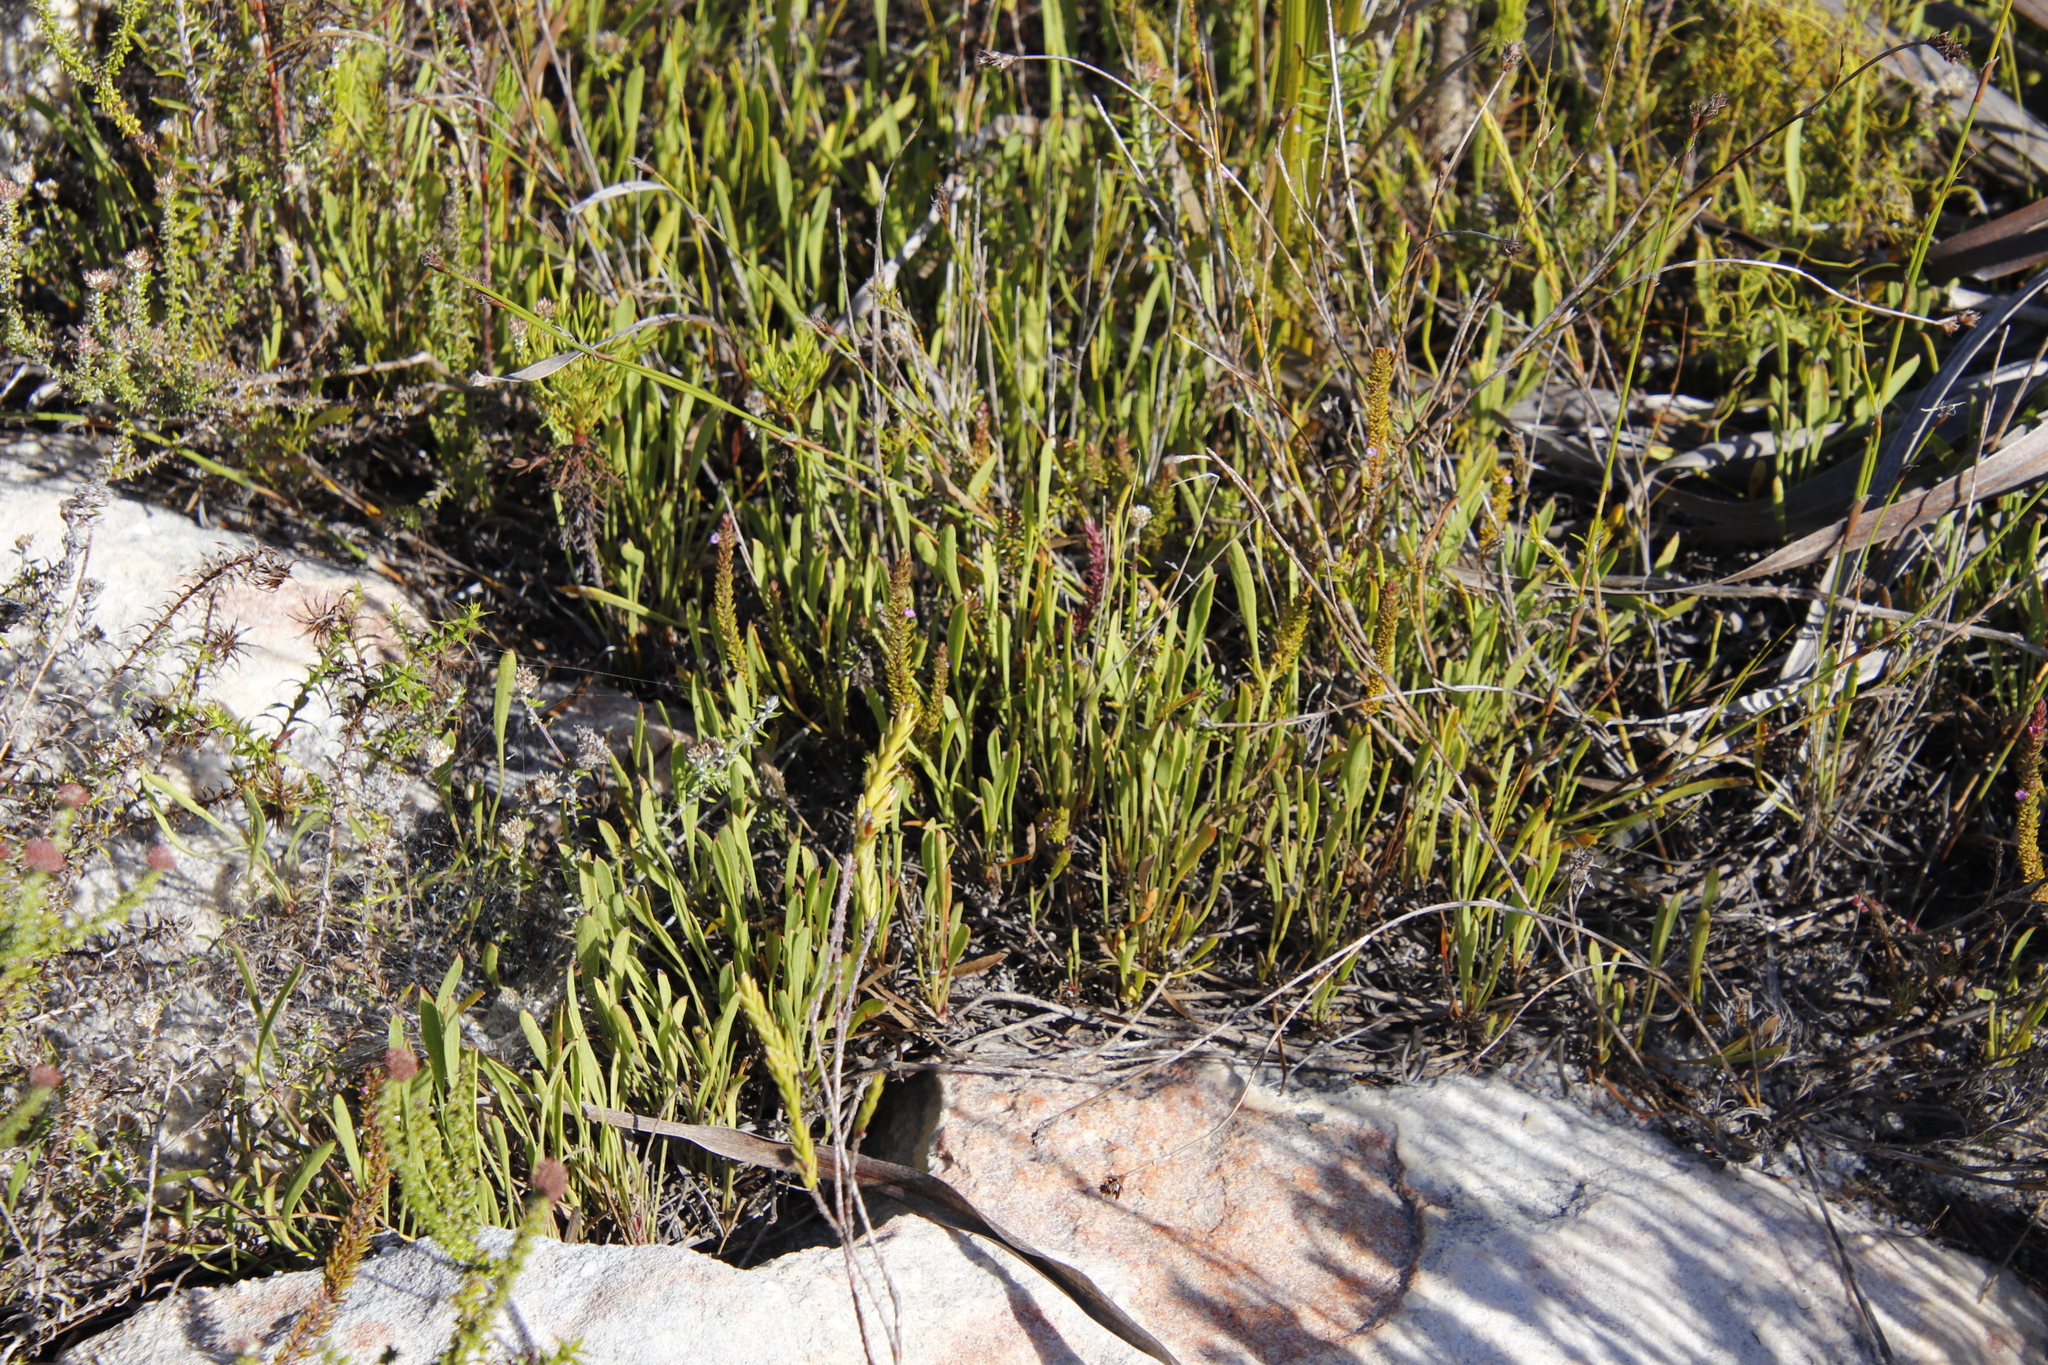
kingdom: Plantae
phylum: Tracheophyta
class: Magnoliopsida
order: Apiales
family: Apiaceae
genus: Centella
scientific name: Centella glabrata
